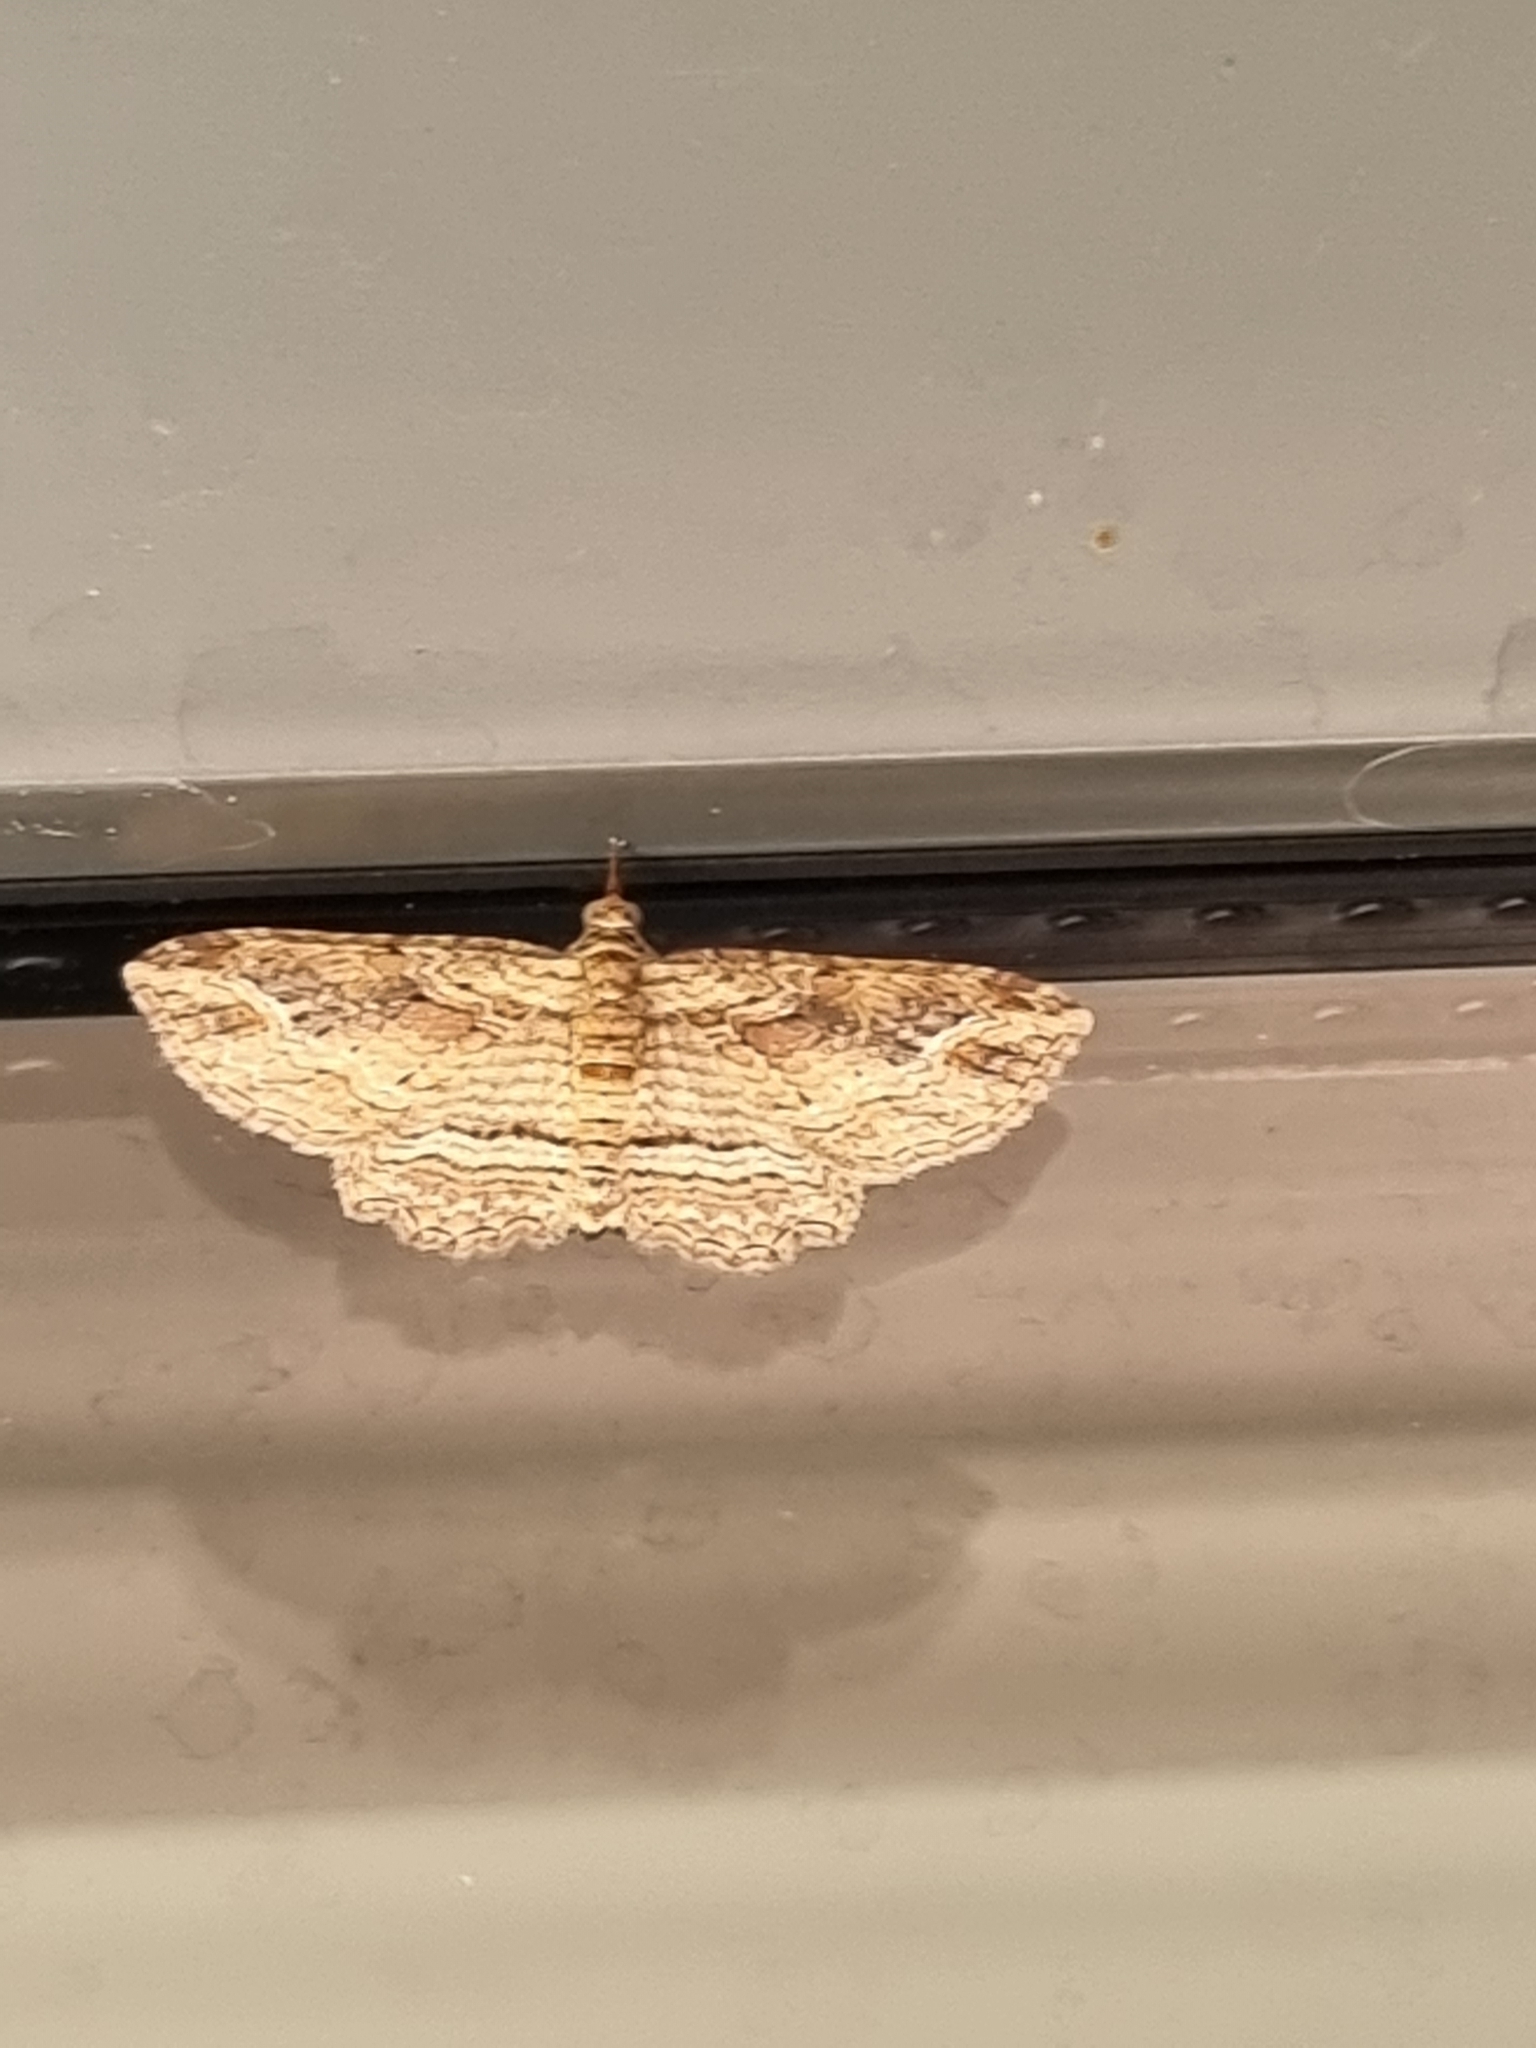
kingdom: Animalia
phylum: Arthropoda
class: Insecta
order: Lepidoptera
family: Geometridae
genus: Chloroclystis
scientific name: Chloroclystis filata
